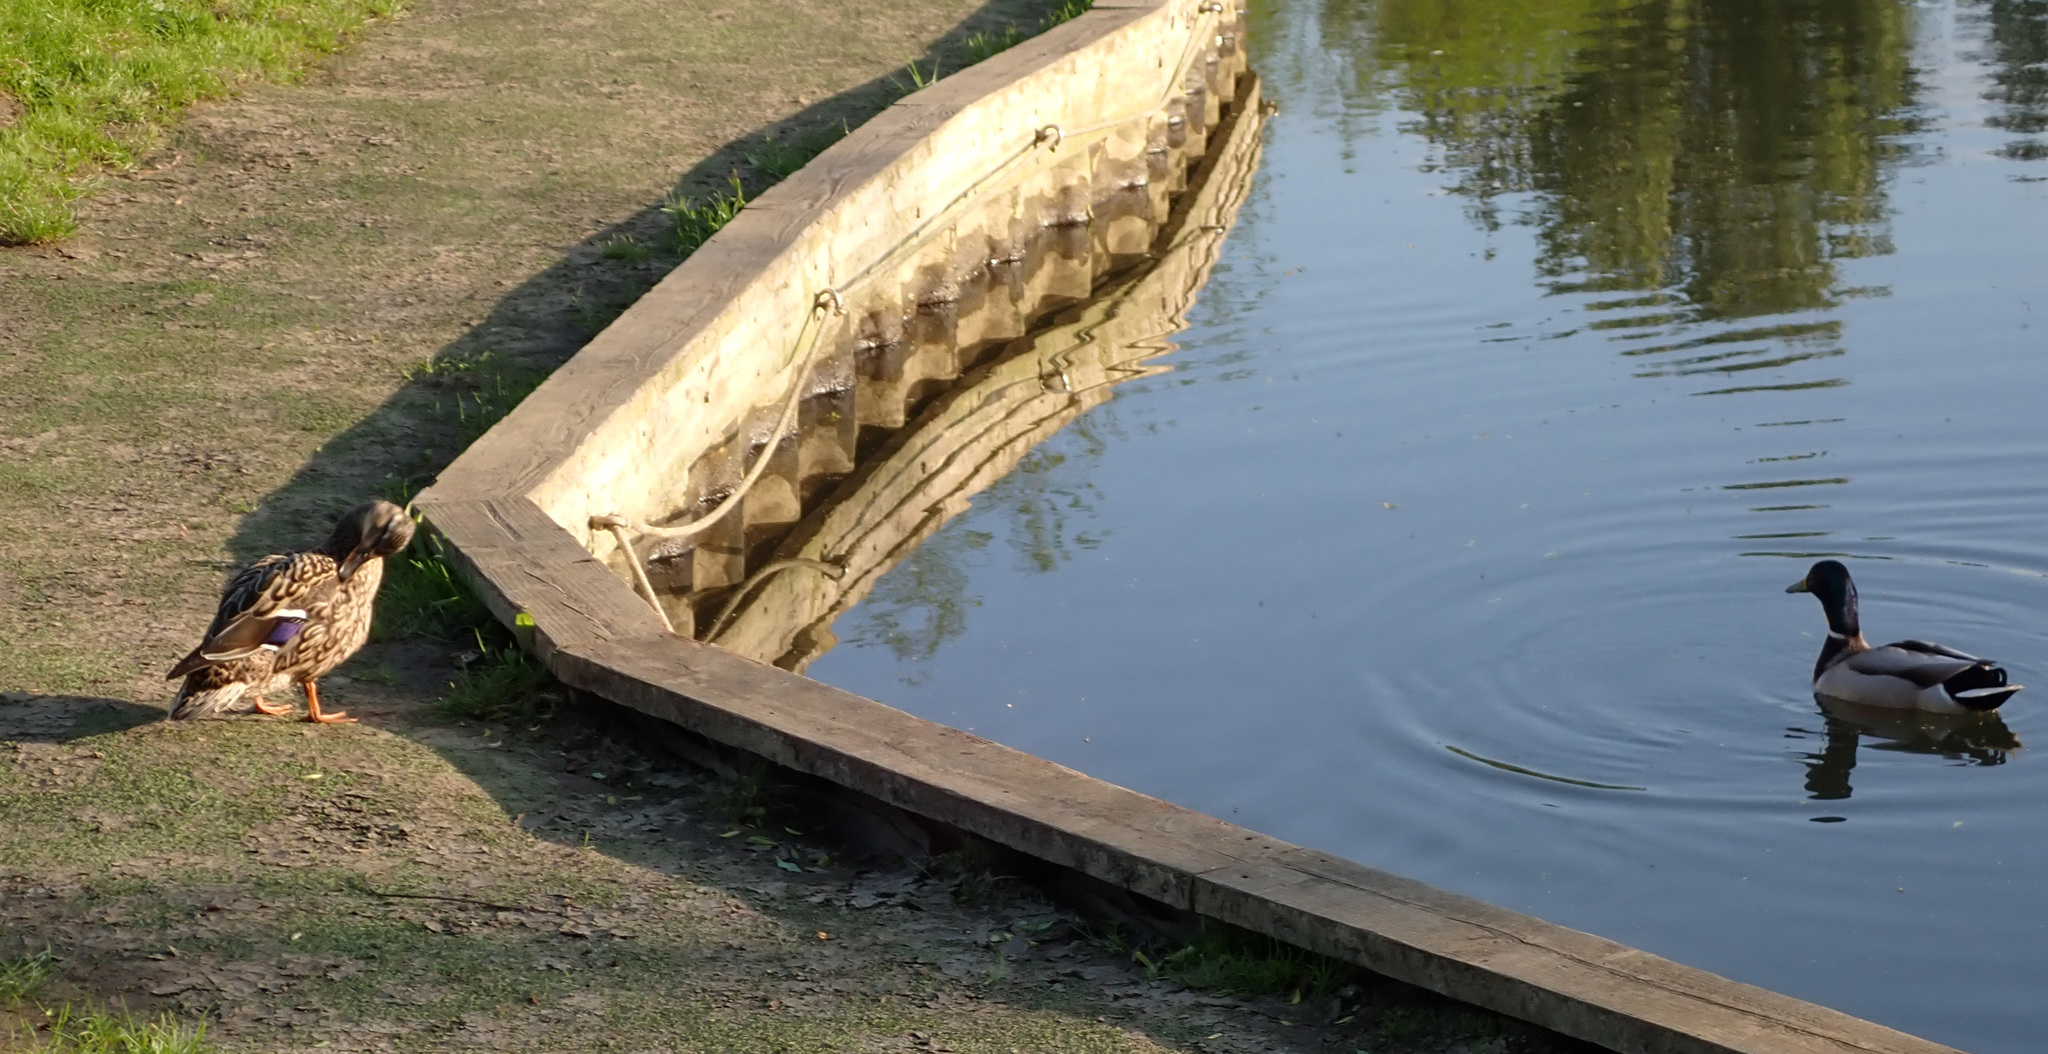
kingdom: Animalia
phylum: Chordata
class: Aves
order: Anseriformes
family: Anatidae
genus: Anas
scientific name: Anas platyrhynchos
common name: Mallard
